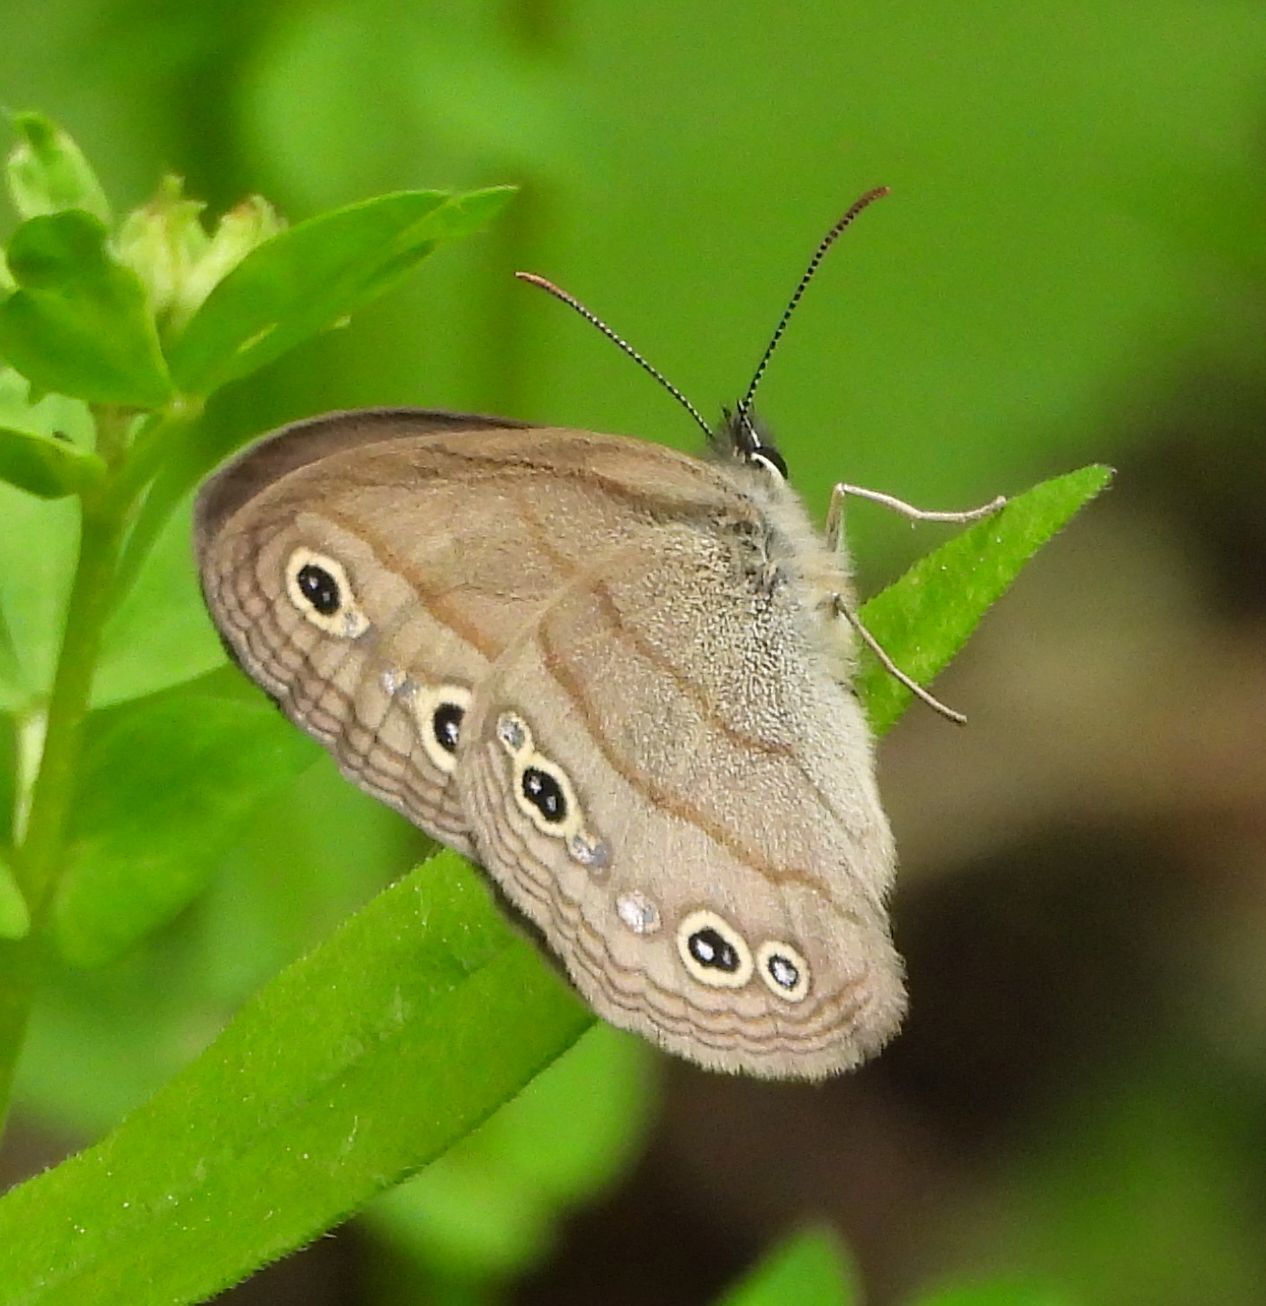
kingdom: Animalia
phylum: Arthropoda
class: Insecta
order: Lepidoptera
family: Nymphalidae
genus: Euptychia
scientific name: Euptychia cymela
